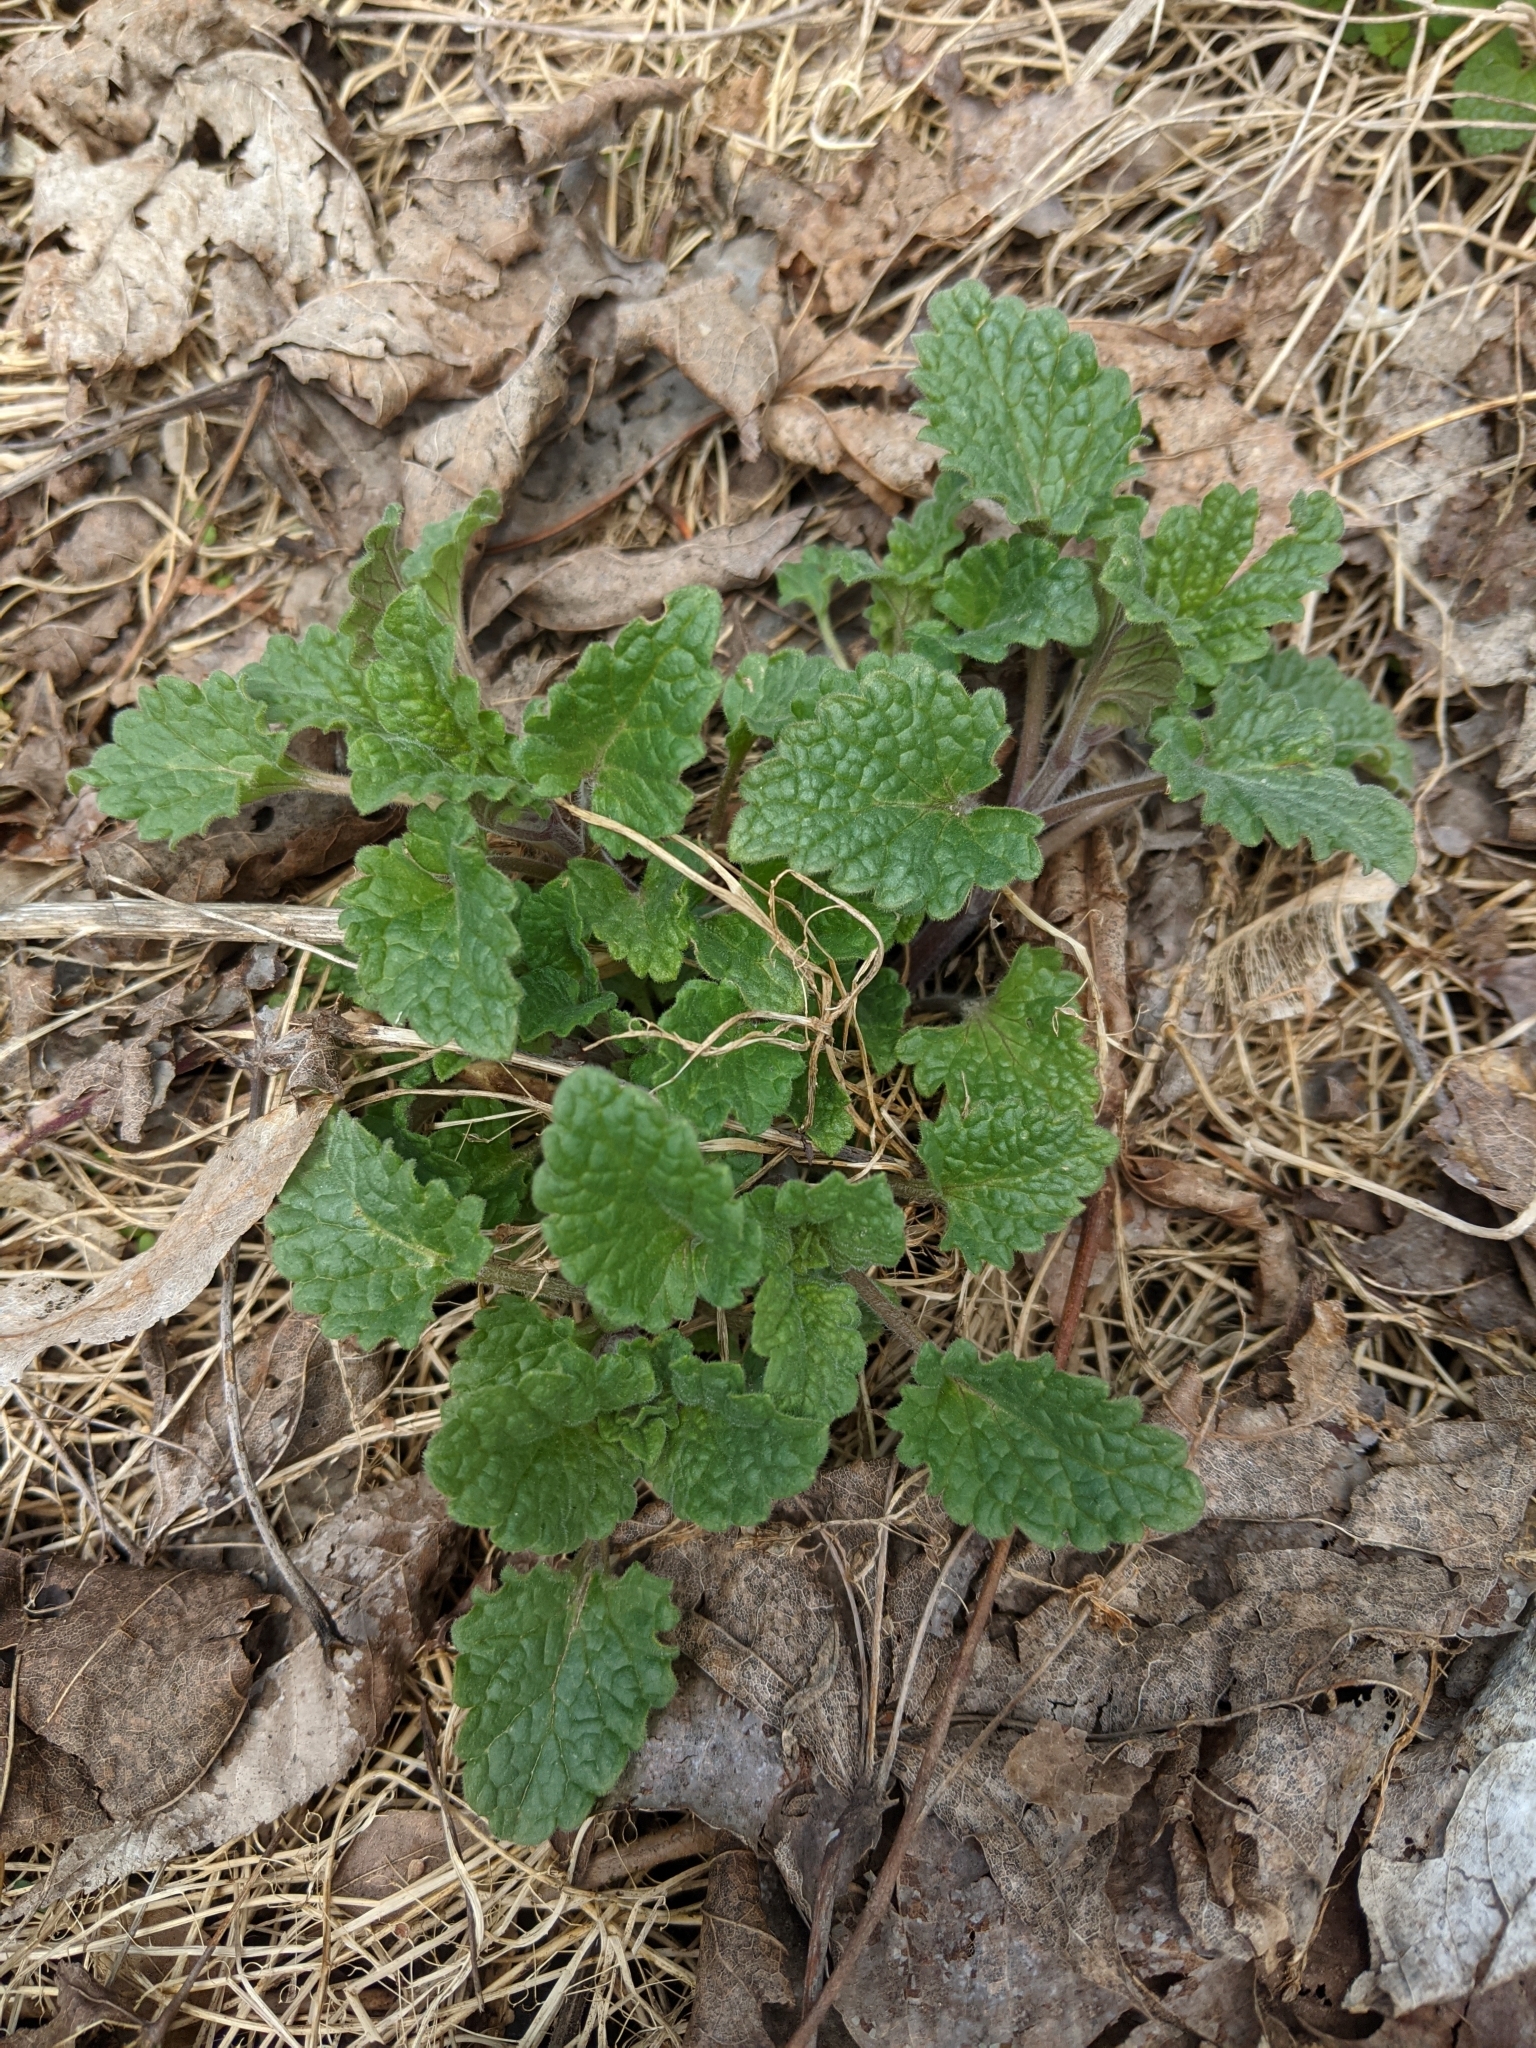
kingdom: Plantae
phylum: Tracheophyta
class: Magnoliopsida
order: Lamiales
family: Lamiaceae
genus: Nepeta
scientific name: Nepeta cataria
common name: Catnip
